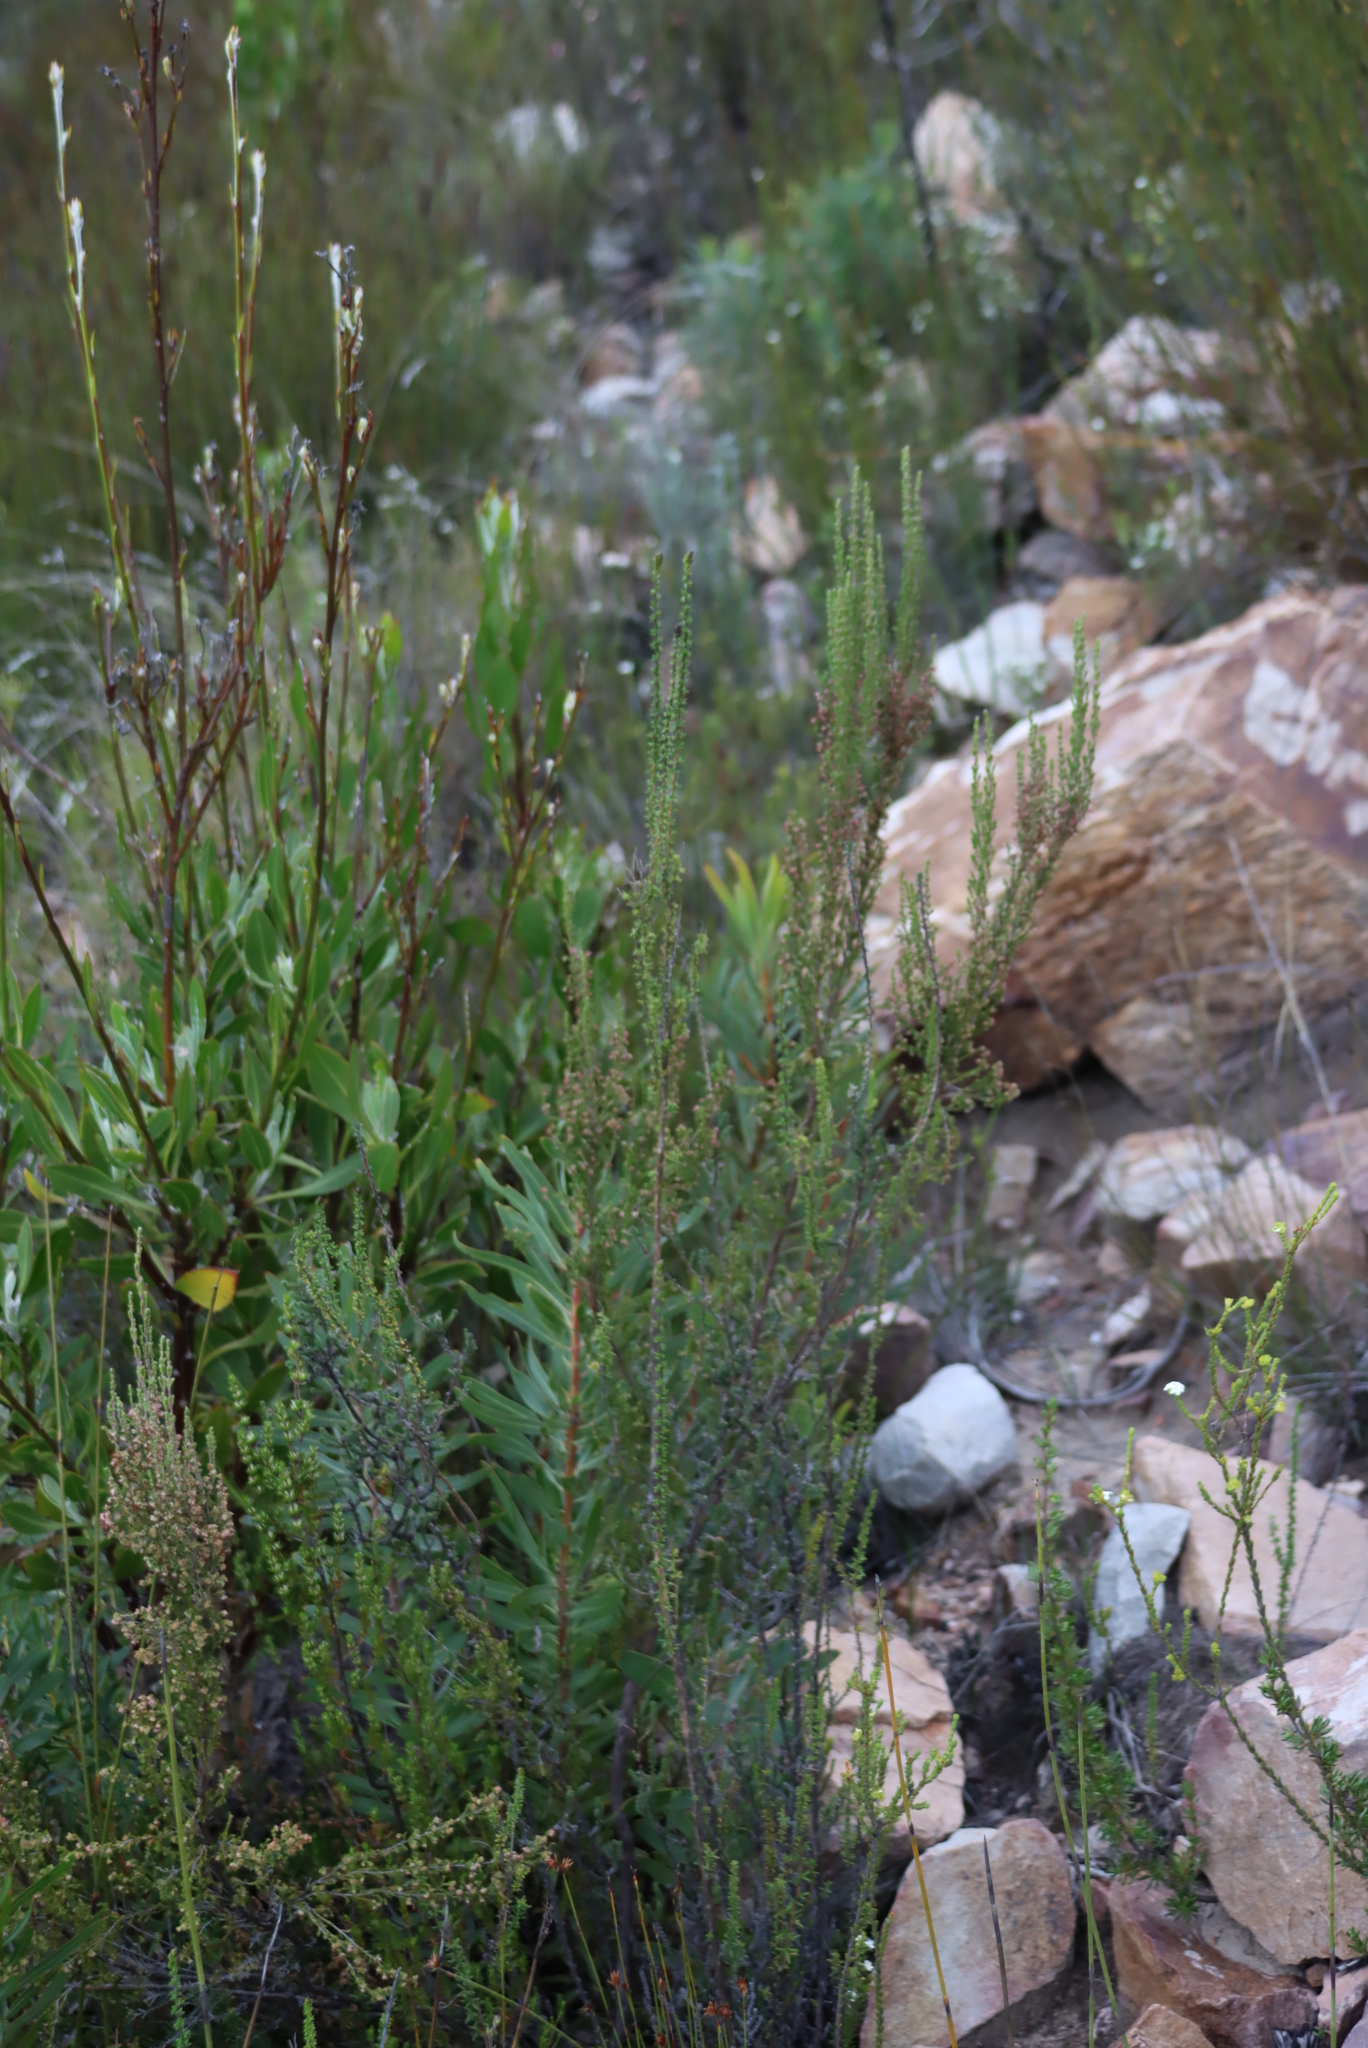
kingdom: Plantae
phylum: Tracheophyta
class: Magnoliopsida
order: Asterales
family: Asteraceae
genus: Osteospermum
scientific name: Osteospermum junceum
